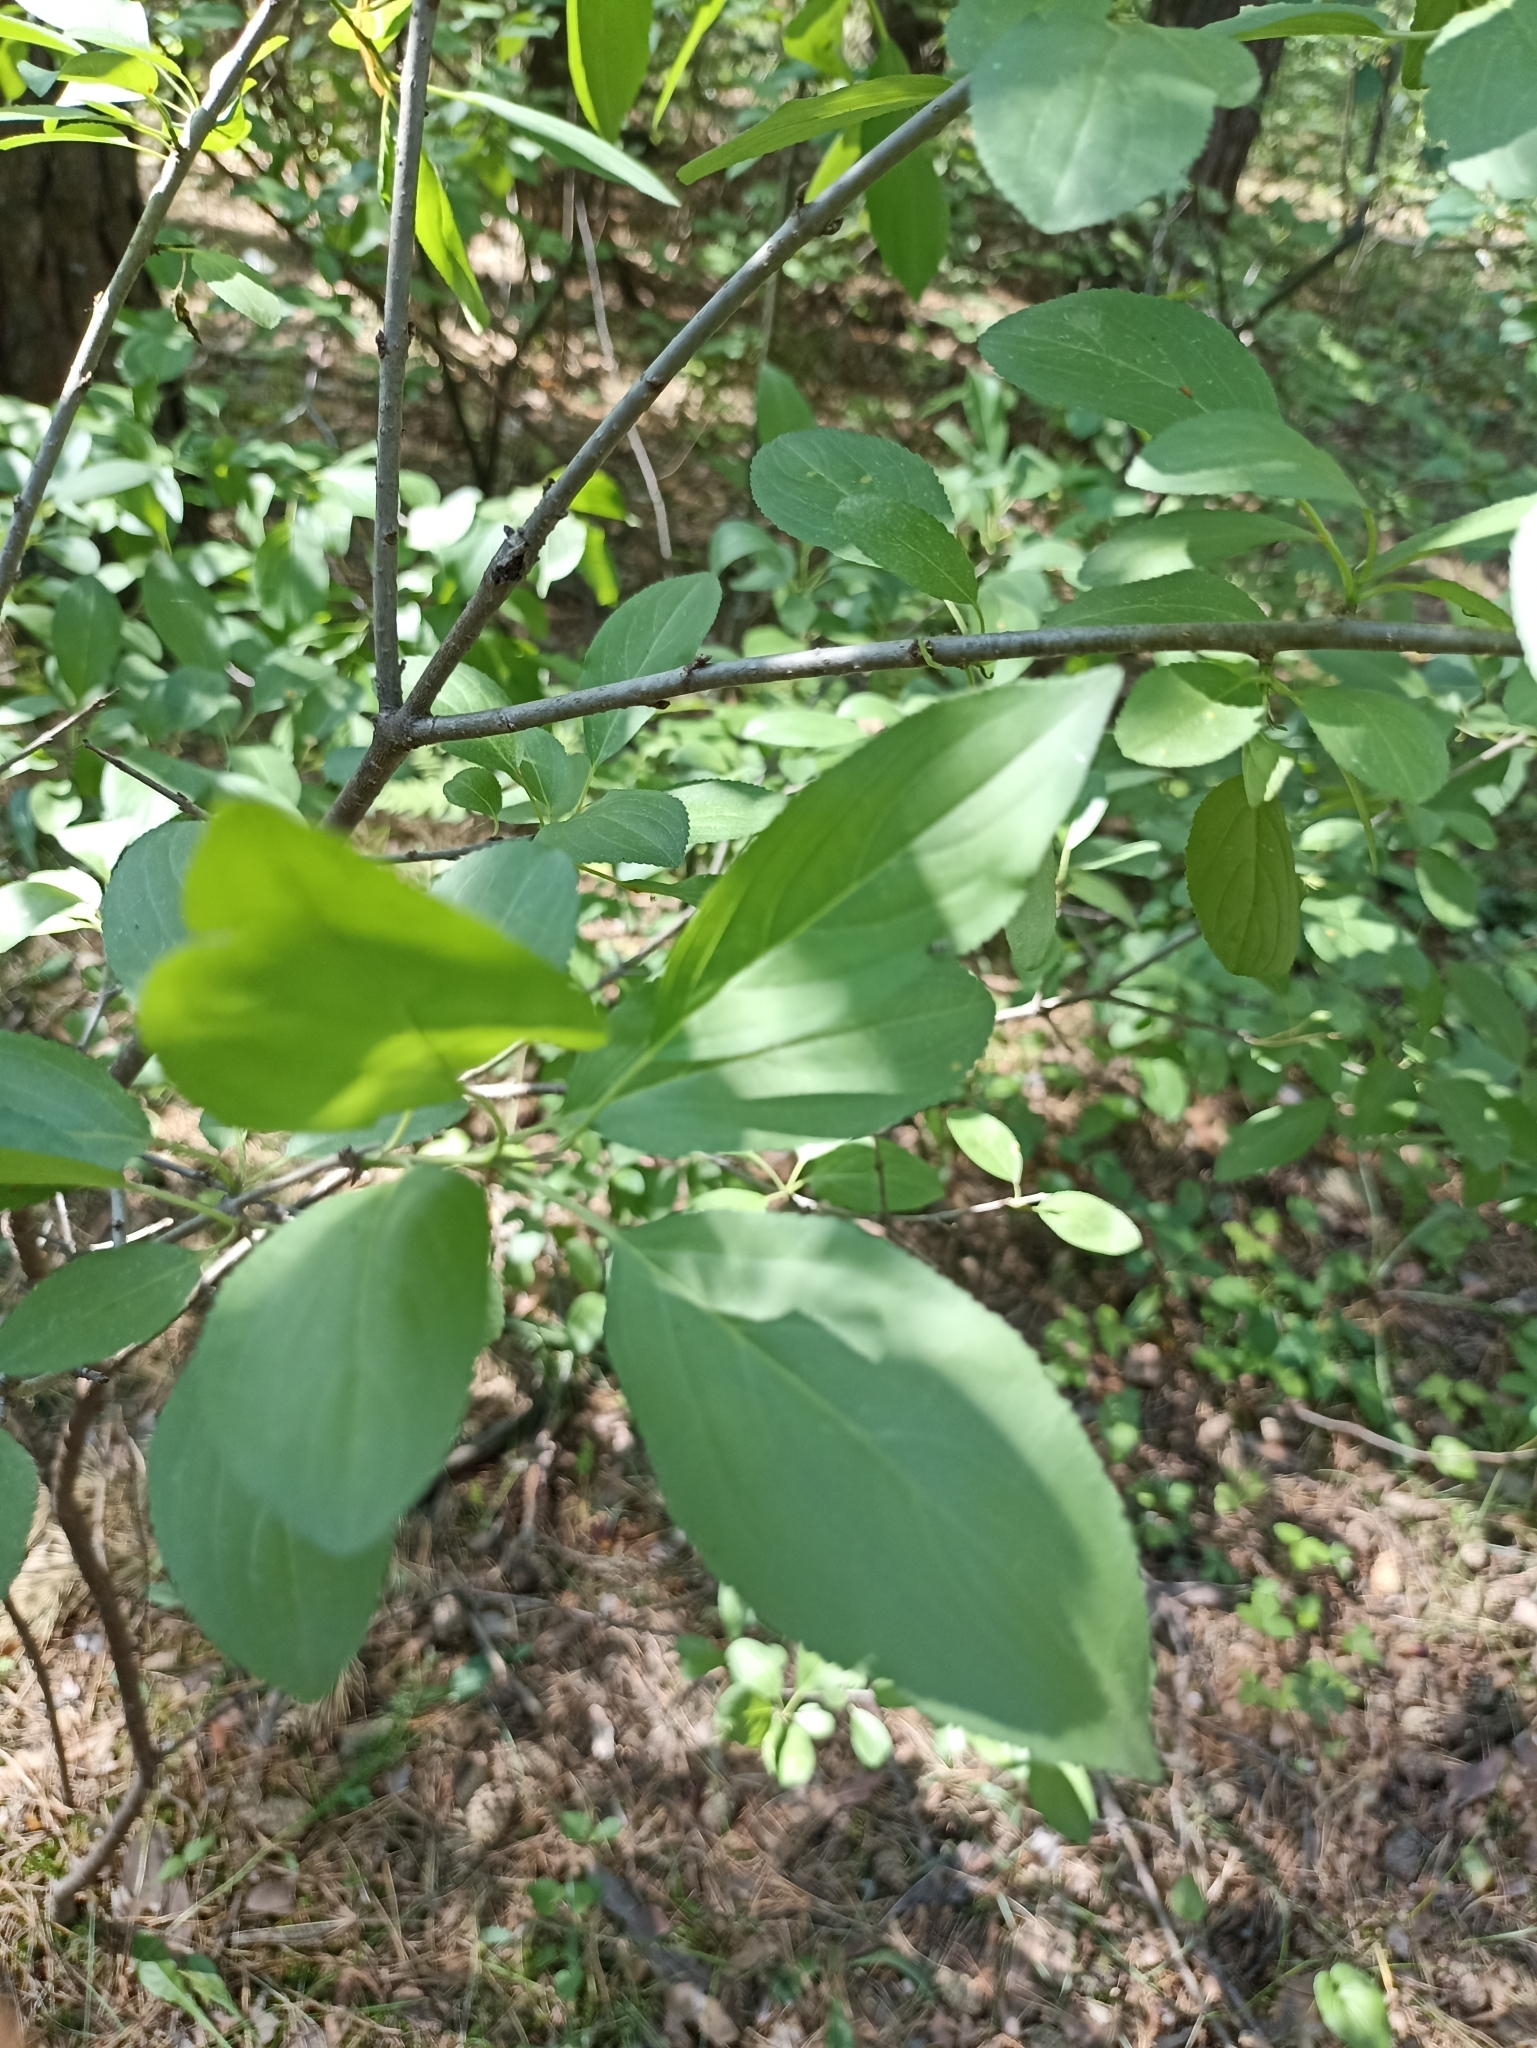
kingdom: Plantae
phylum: Tracheophyta
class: Magnoliopsida
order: Rosales
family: Rhamnaceae
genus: Rhamnus
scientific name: Rhamnus cathartica
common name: Common buckthorn
